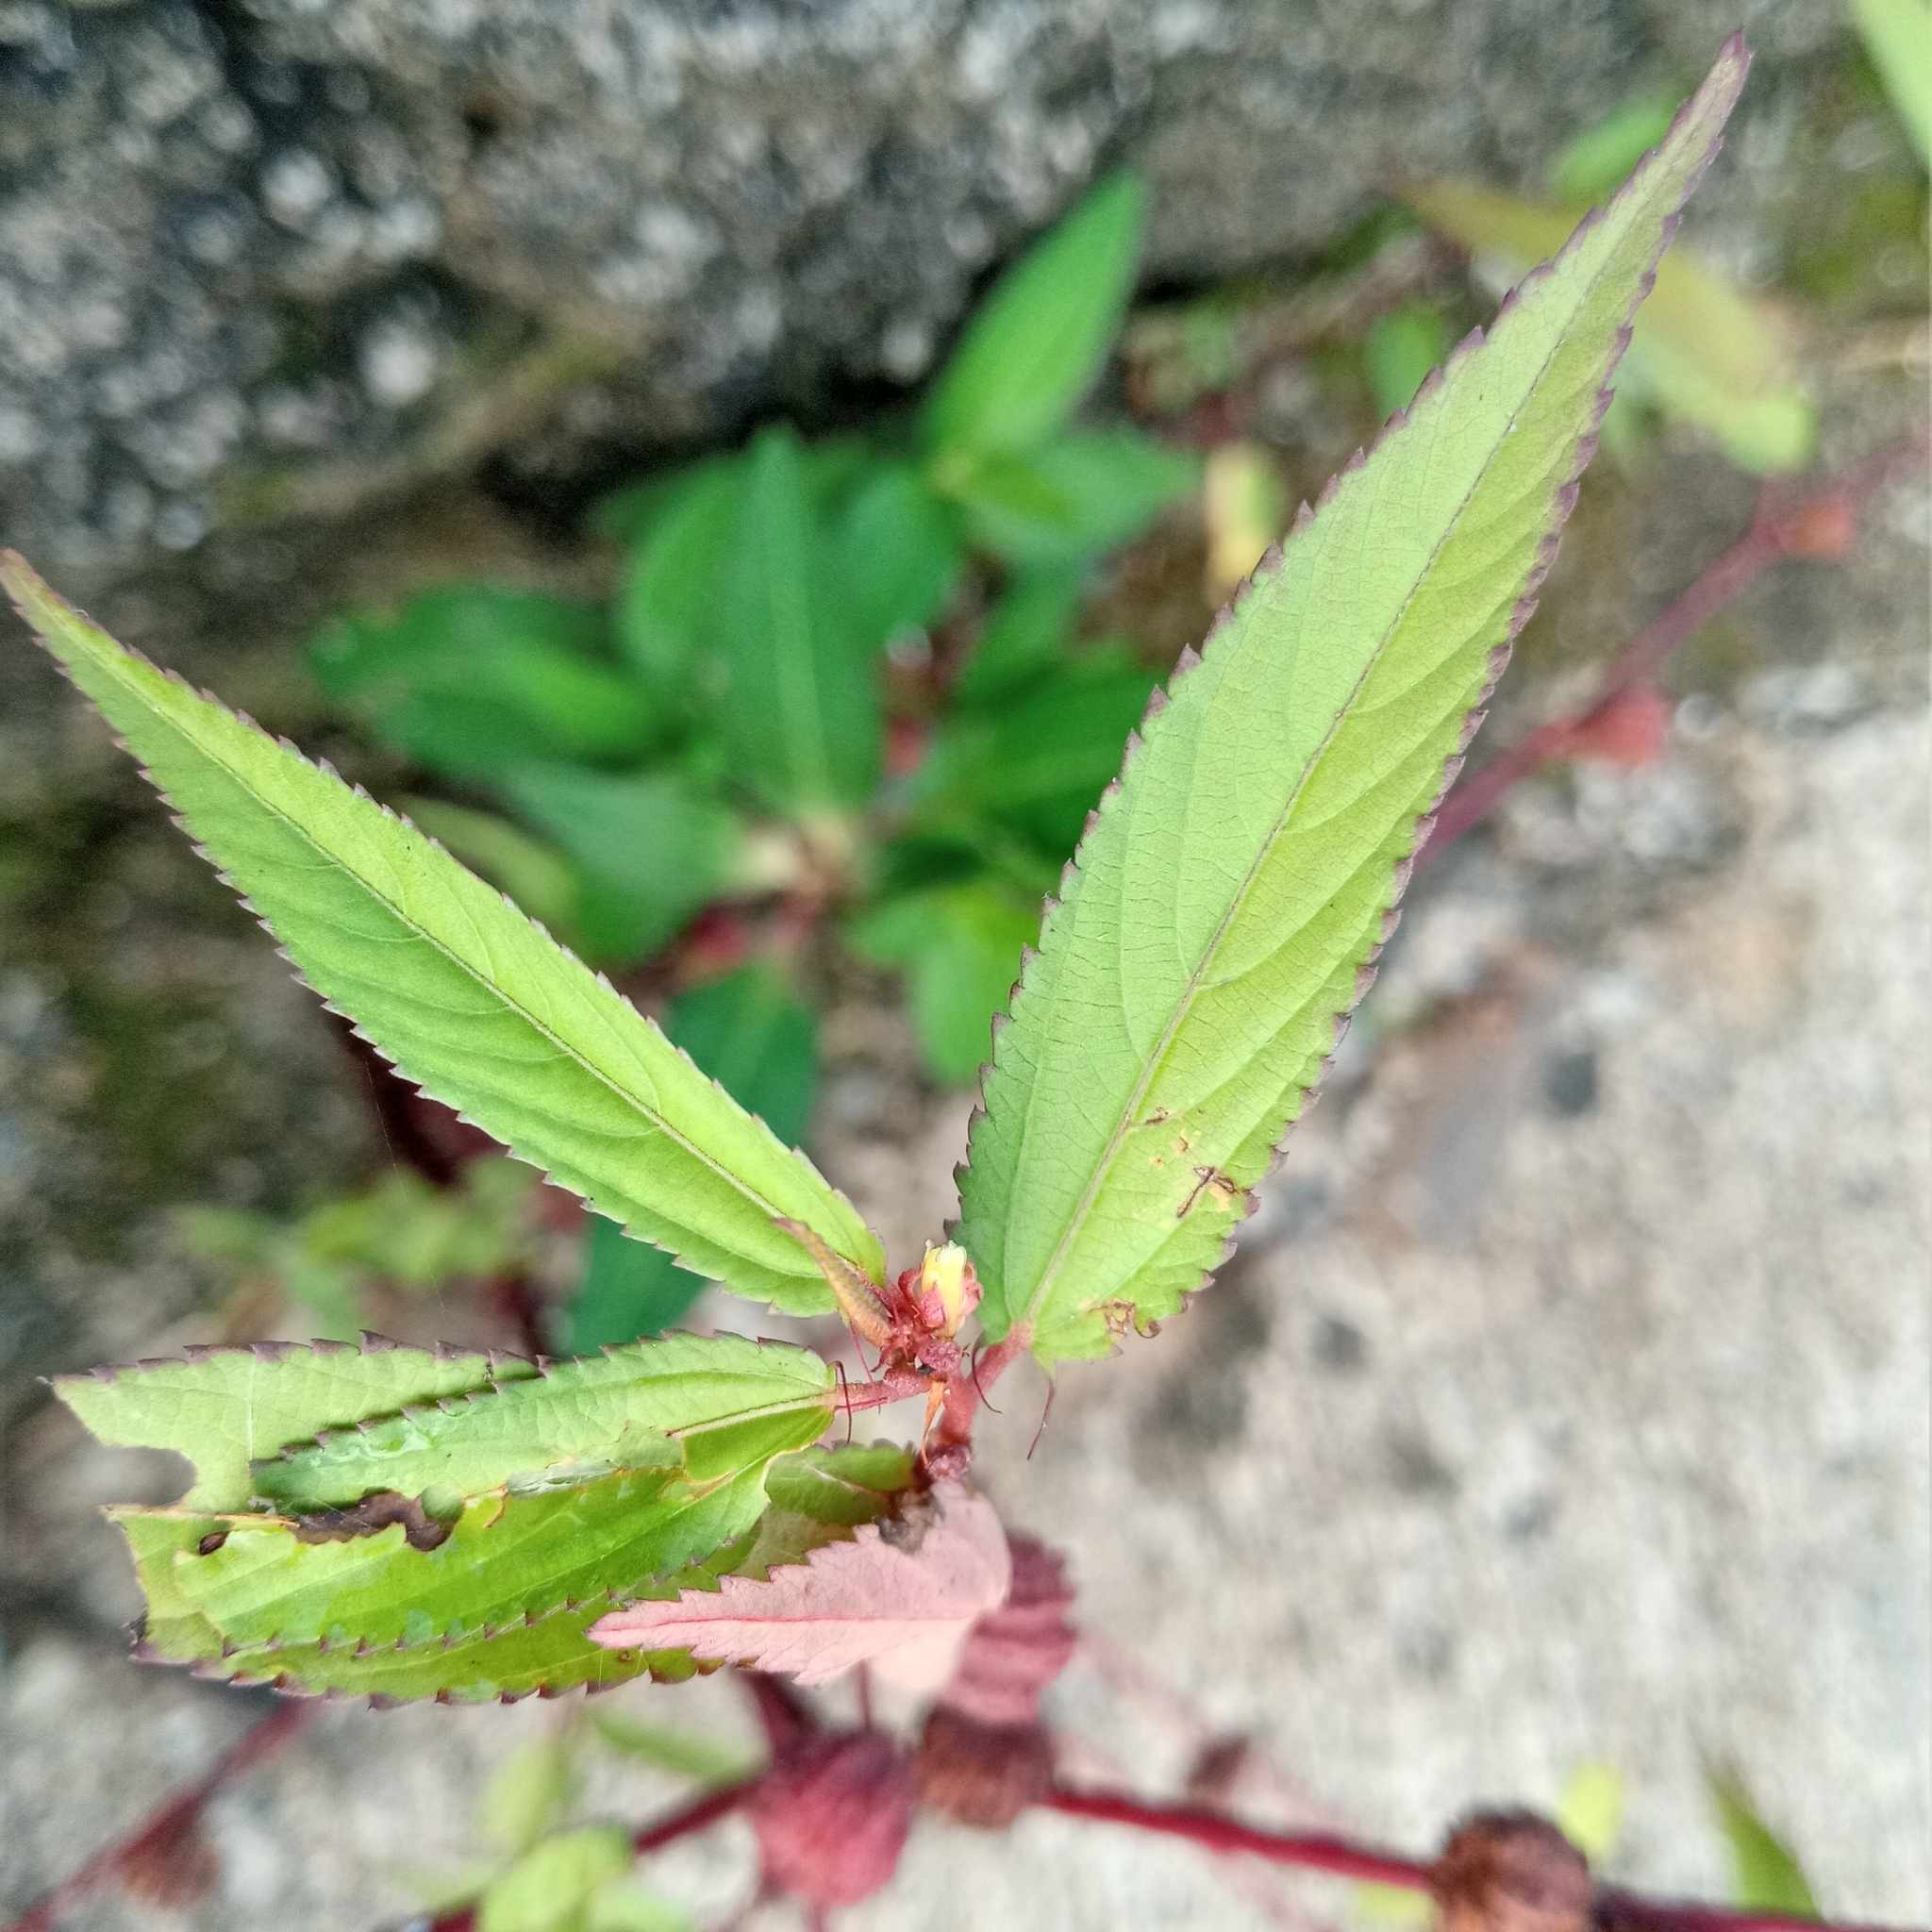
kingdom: Plantae
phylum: Tracheophyta
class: Magnoliopsida
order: Malvales
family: Malvaceae
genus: Corchorus
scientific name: Corchorus capsularis
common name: Jute
